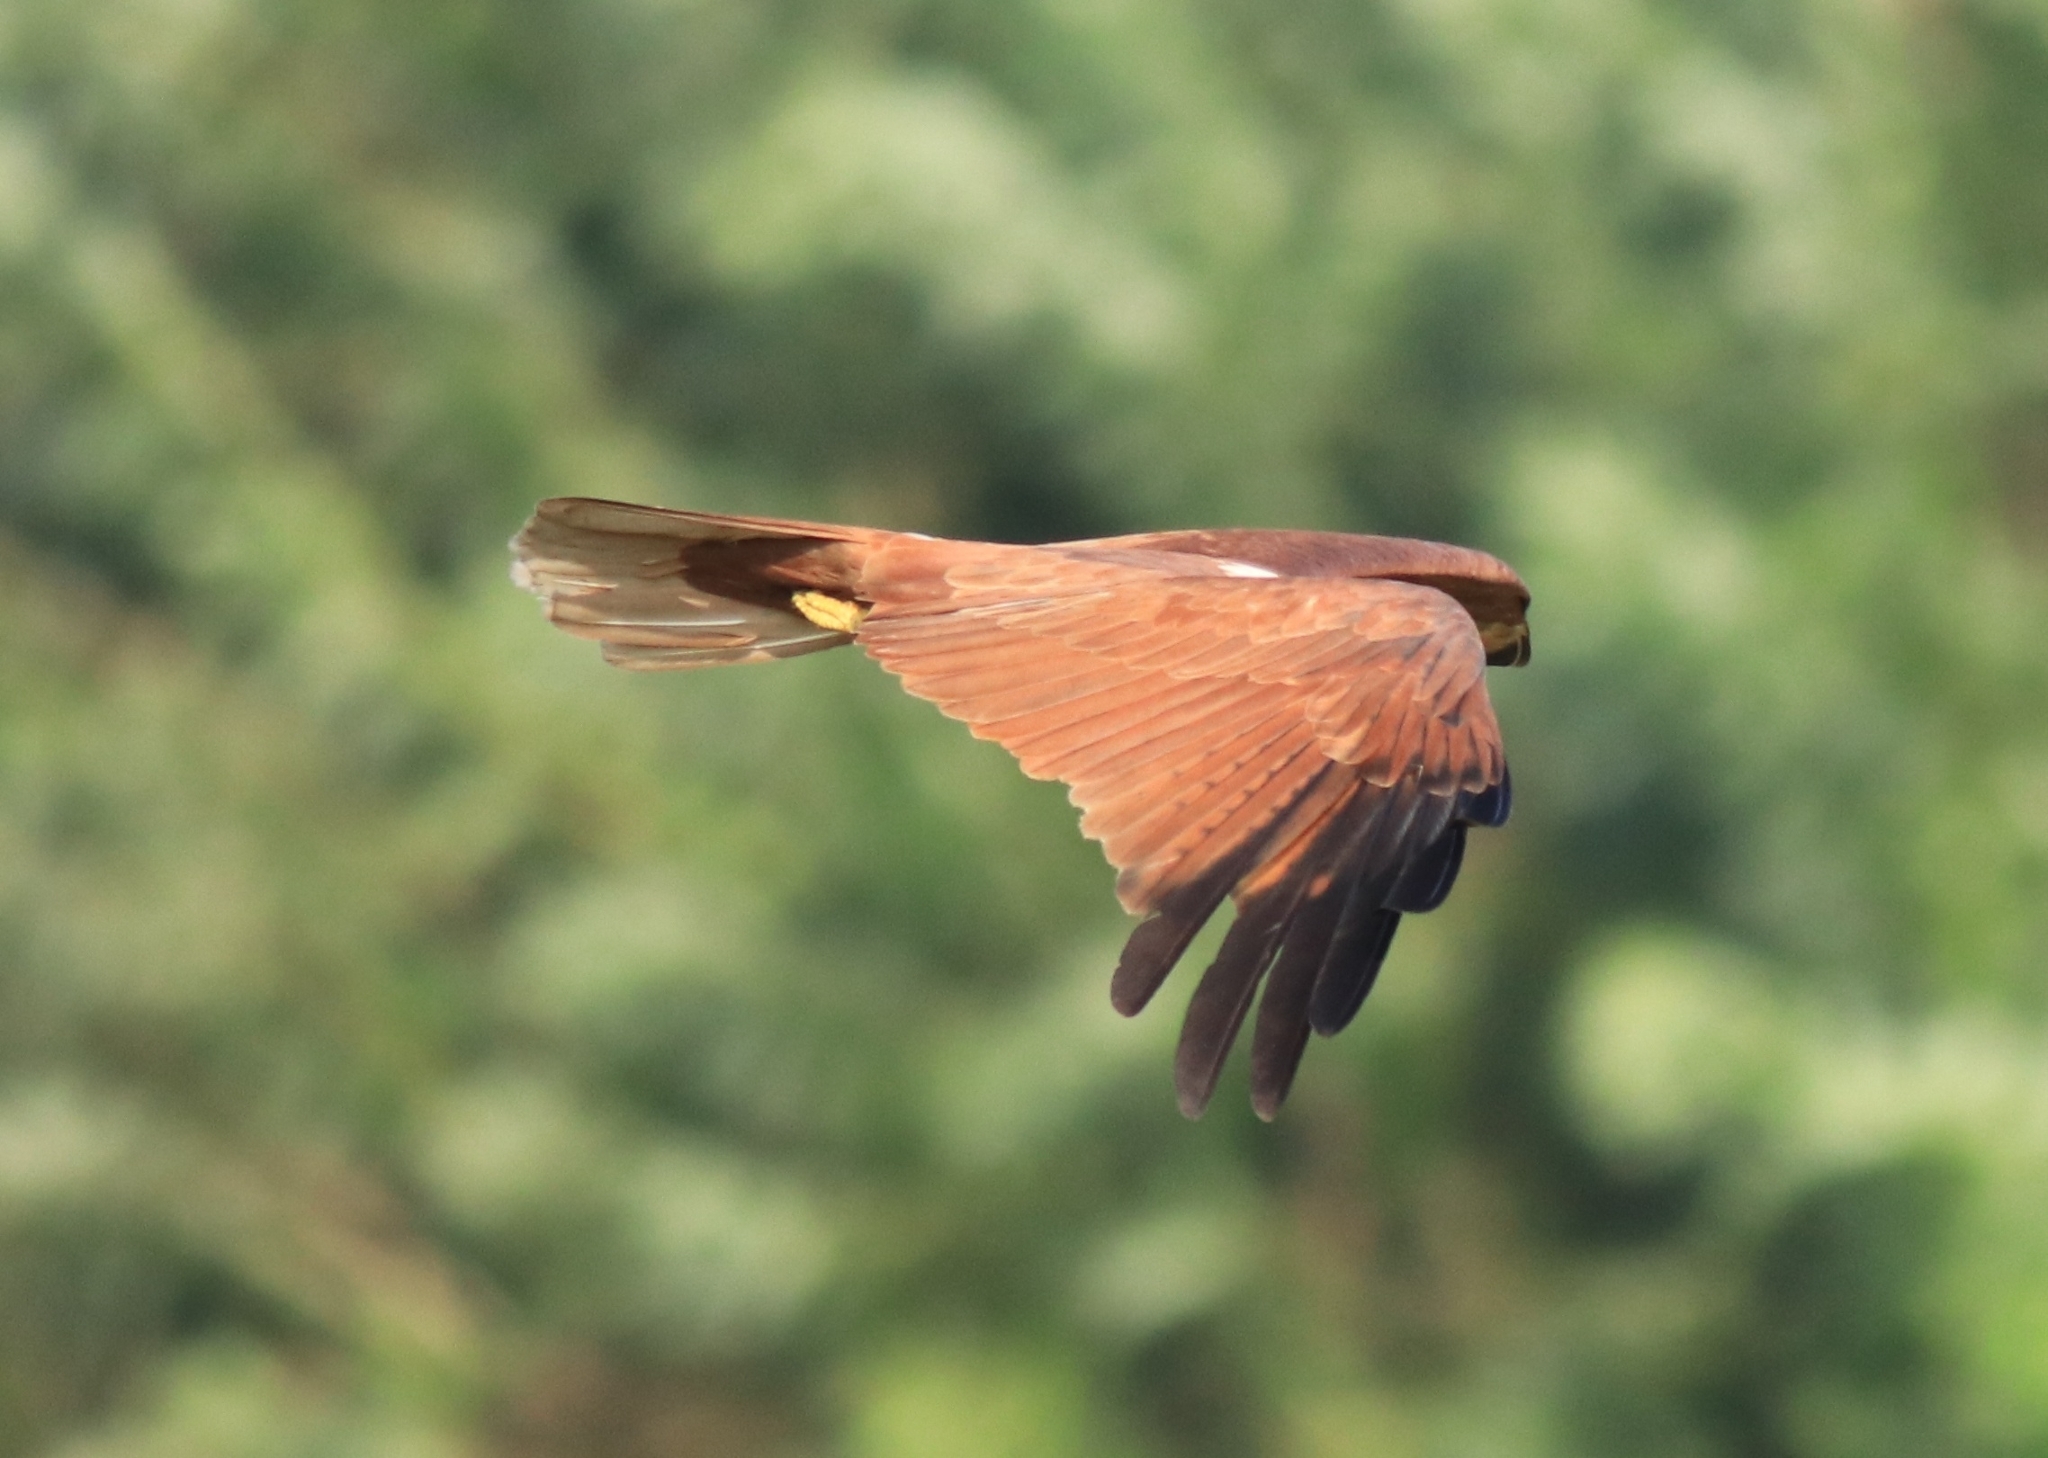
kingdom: Animalia
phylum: Chordata
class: Aves
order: Accipitriformes
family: Accipitridae
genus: Haliastur
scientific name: Haliastur indus
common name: Brahminy kite
